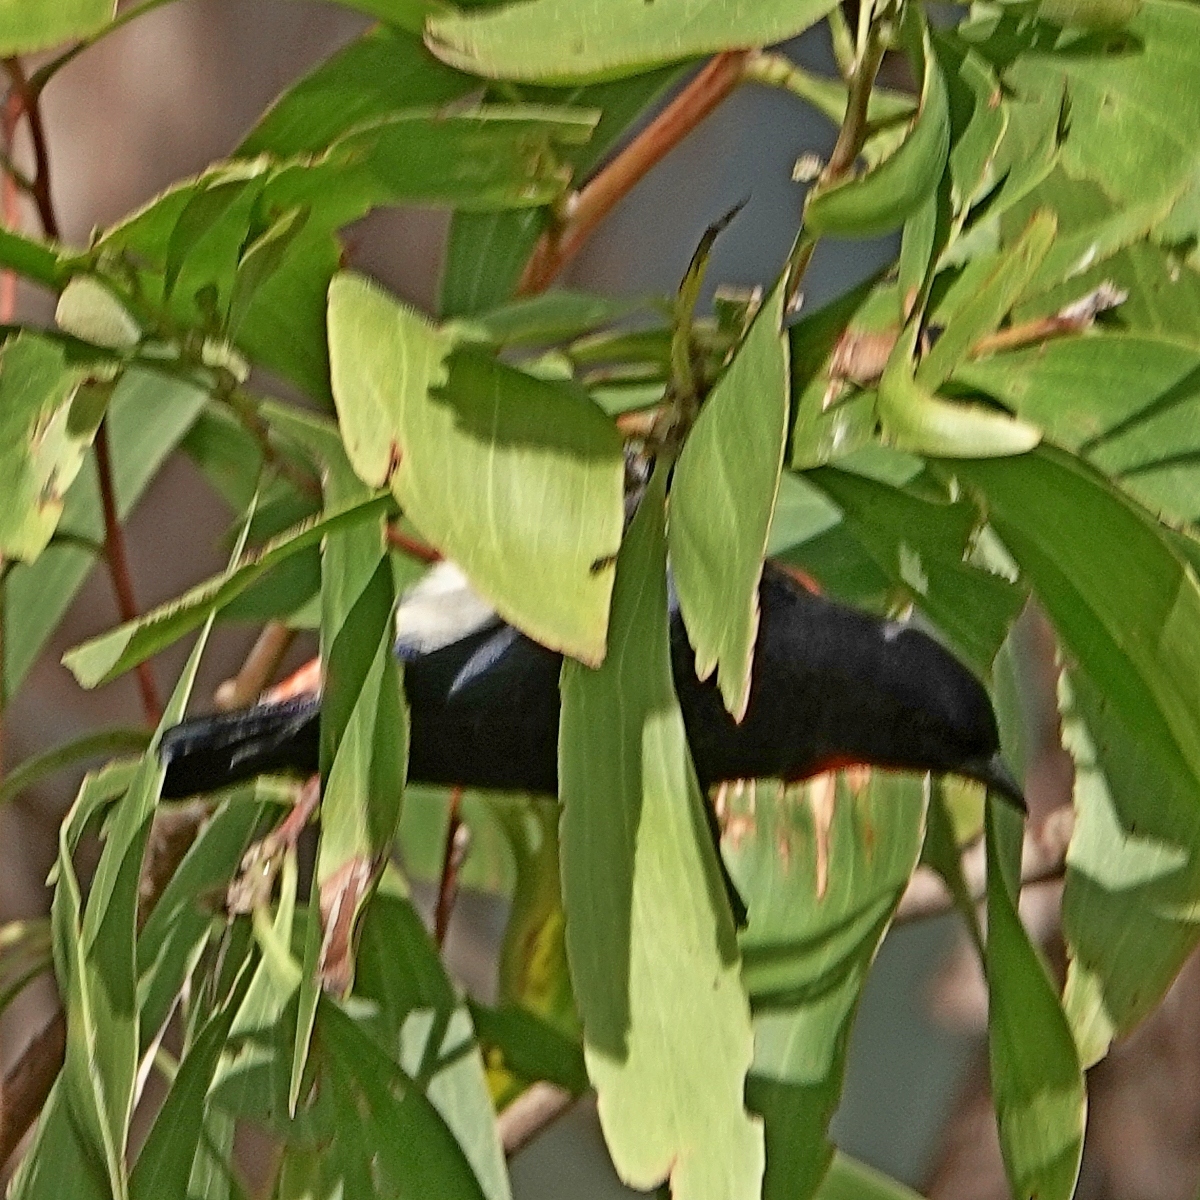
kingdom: Animalia
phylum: Chordata
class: Aves
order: Passeriformes
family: Dicaeidae
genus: Dicaeum
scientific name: Dicaeum hirundinaceum
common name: Mistletoebird
